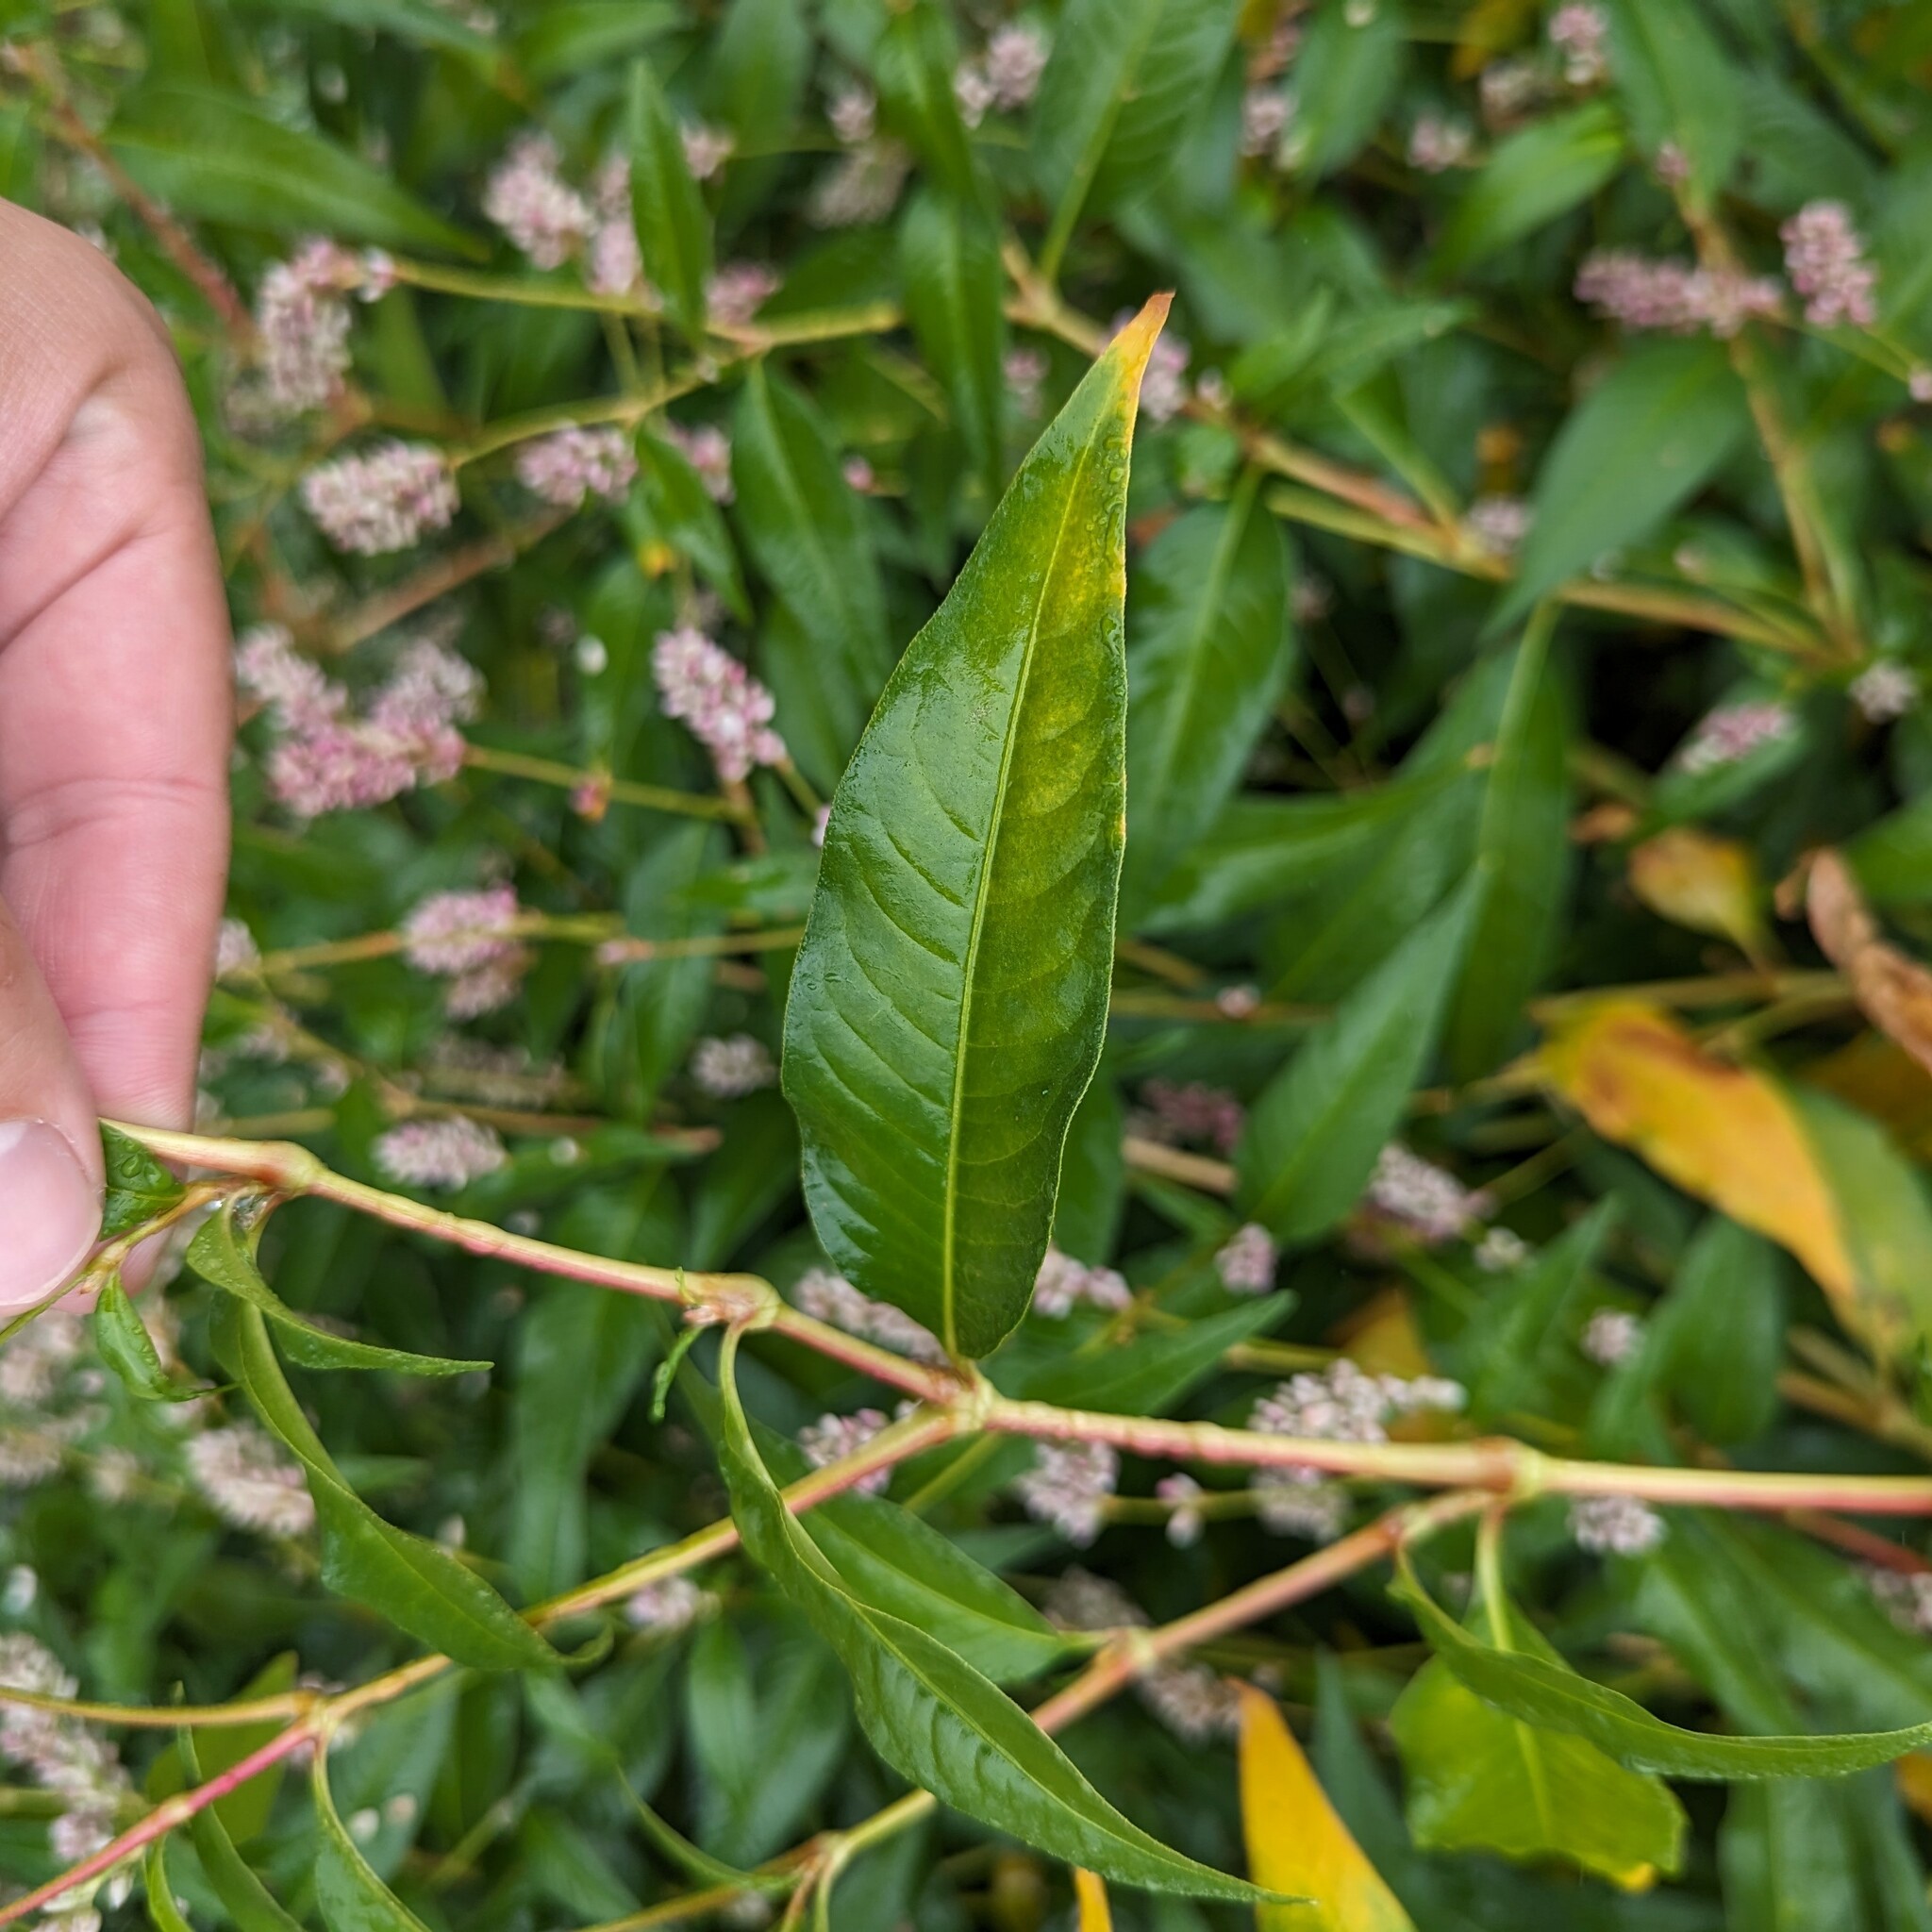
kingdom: Plantae
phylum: Tracheophyta
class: Magnoliopsida
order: Caryophyllales
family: Polygonaceae
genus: Persicaria
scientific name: Persicaria pensylvanica
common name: Pinkweed
